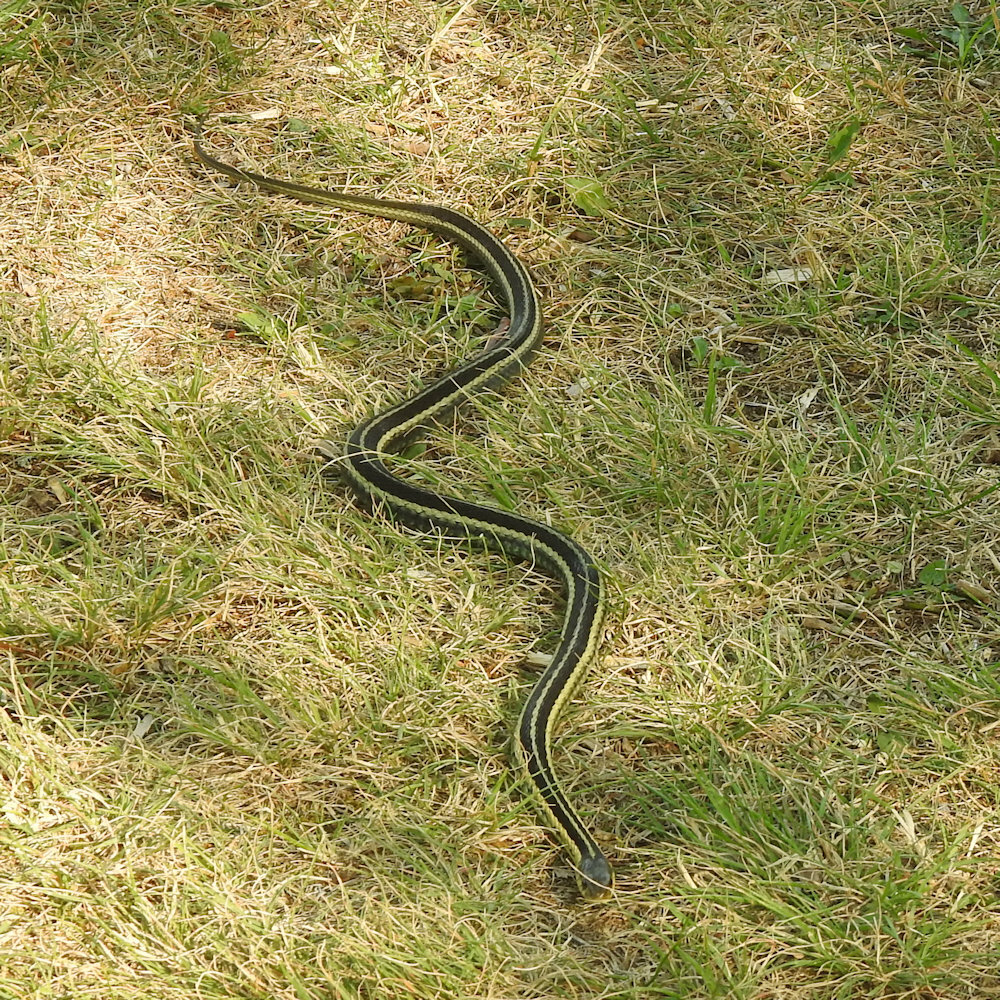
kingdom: Animalia
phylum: Chordata
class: Squamata
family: Colubridae
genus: Thamnophis
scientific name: Thamnophis sirtalis
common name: Common garter snake
